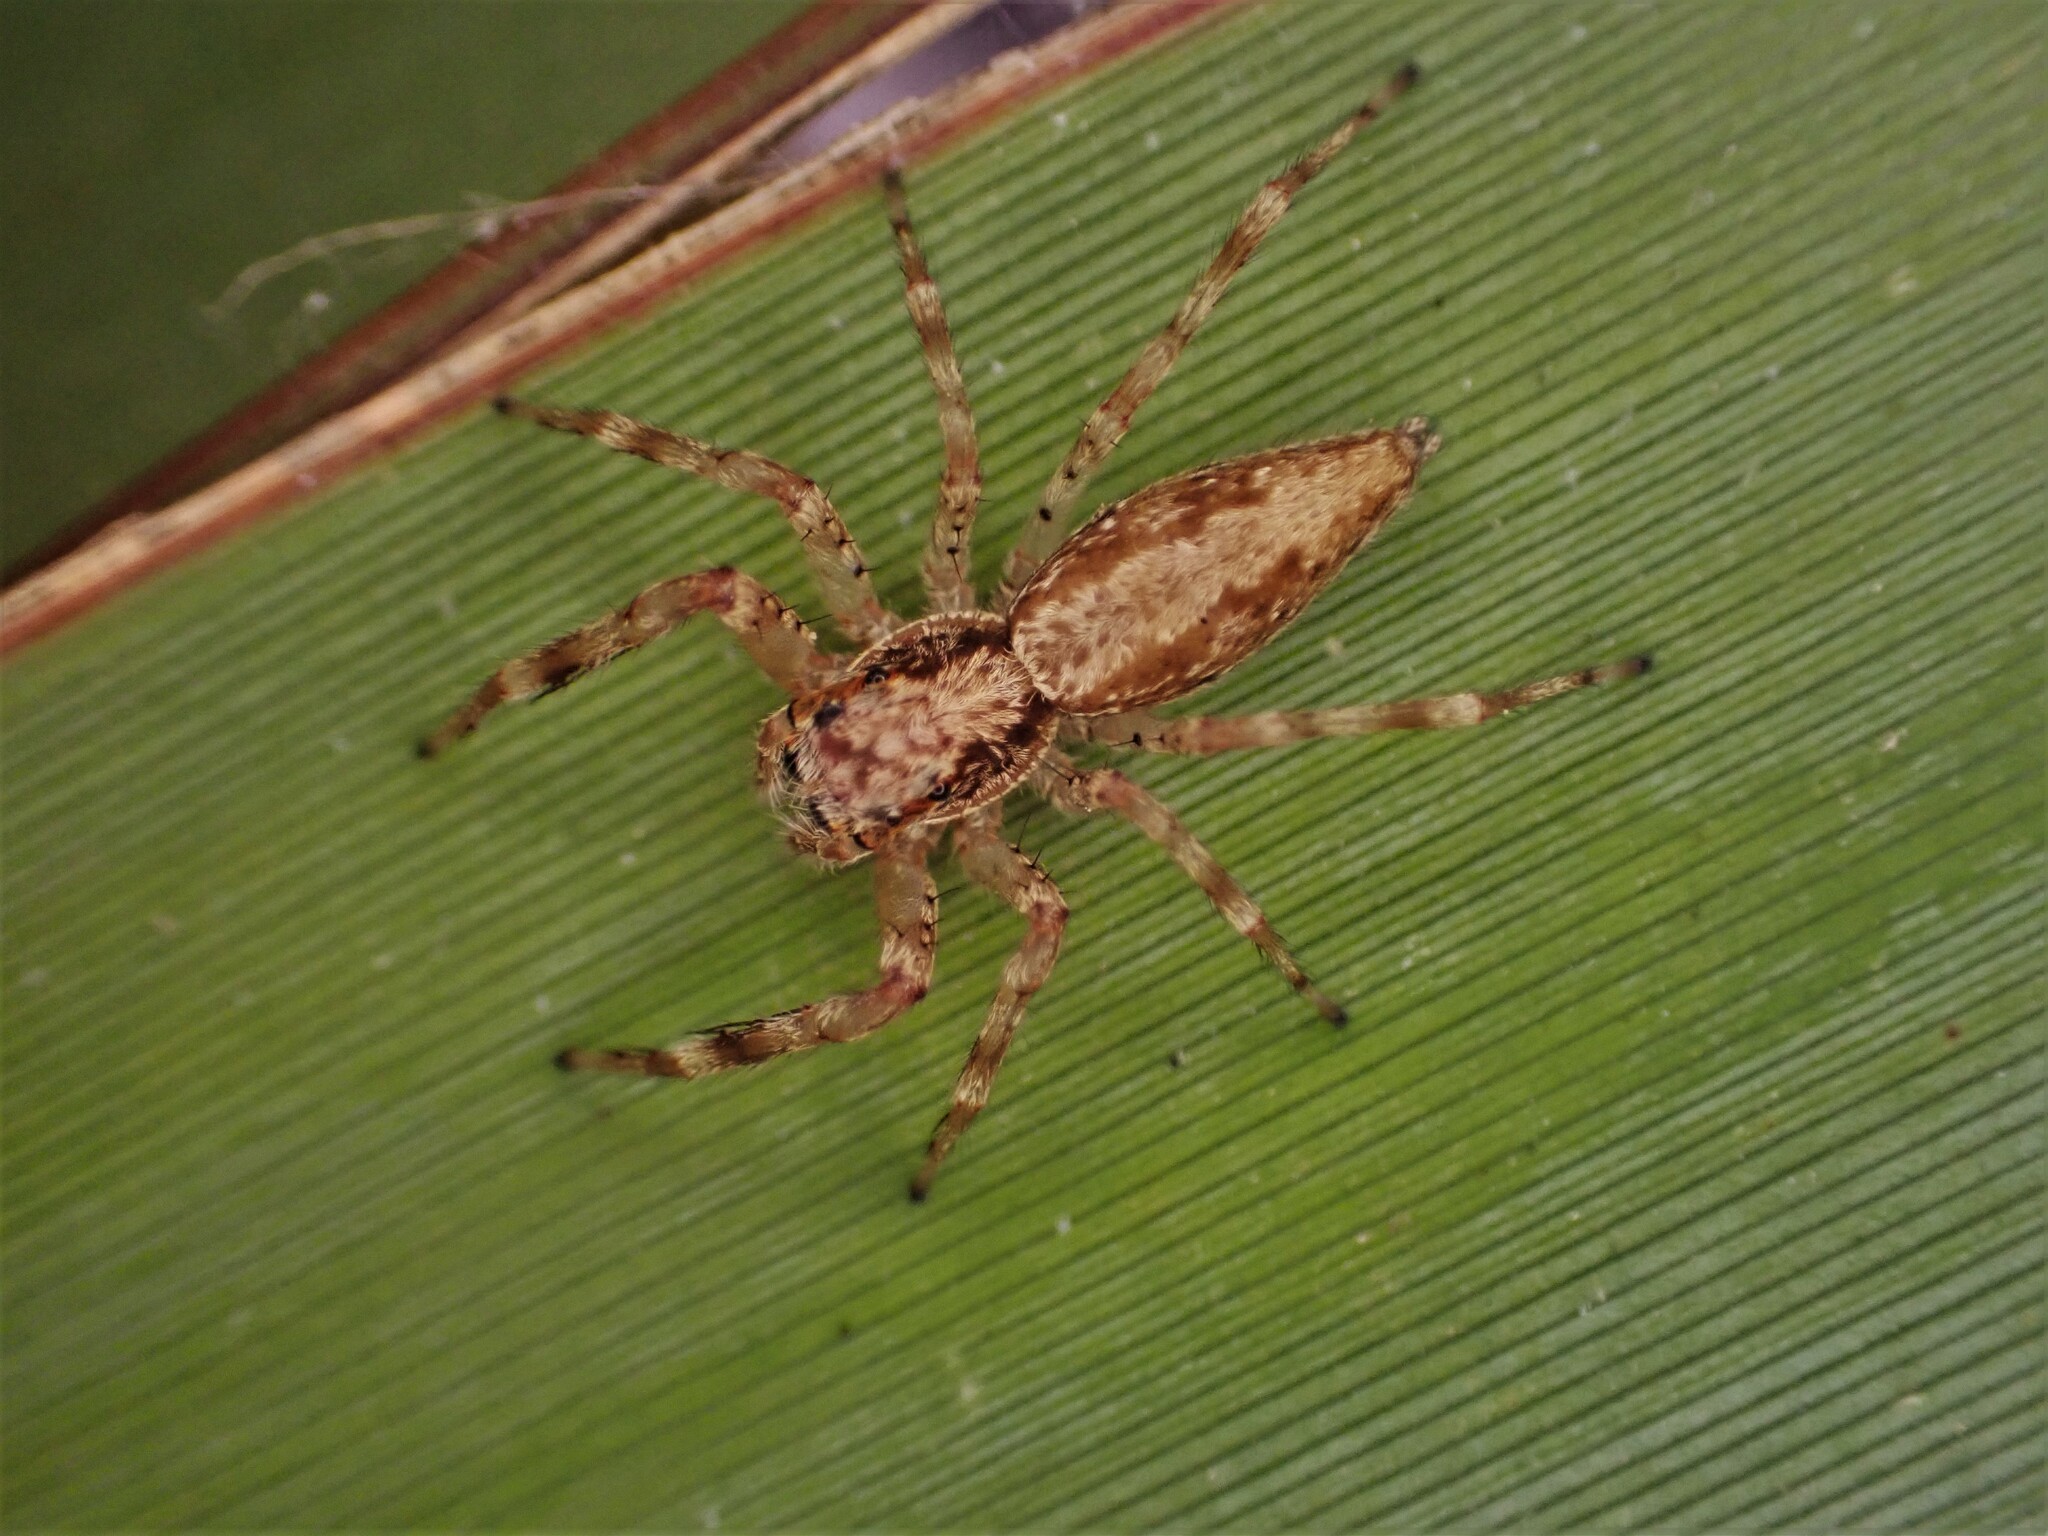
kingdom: Animalia
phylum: Arthropoda
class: Arachnida
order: Araneae
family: Salticidae
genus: Helpis
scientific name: Helpis minitabunda
